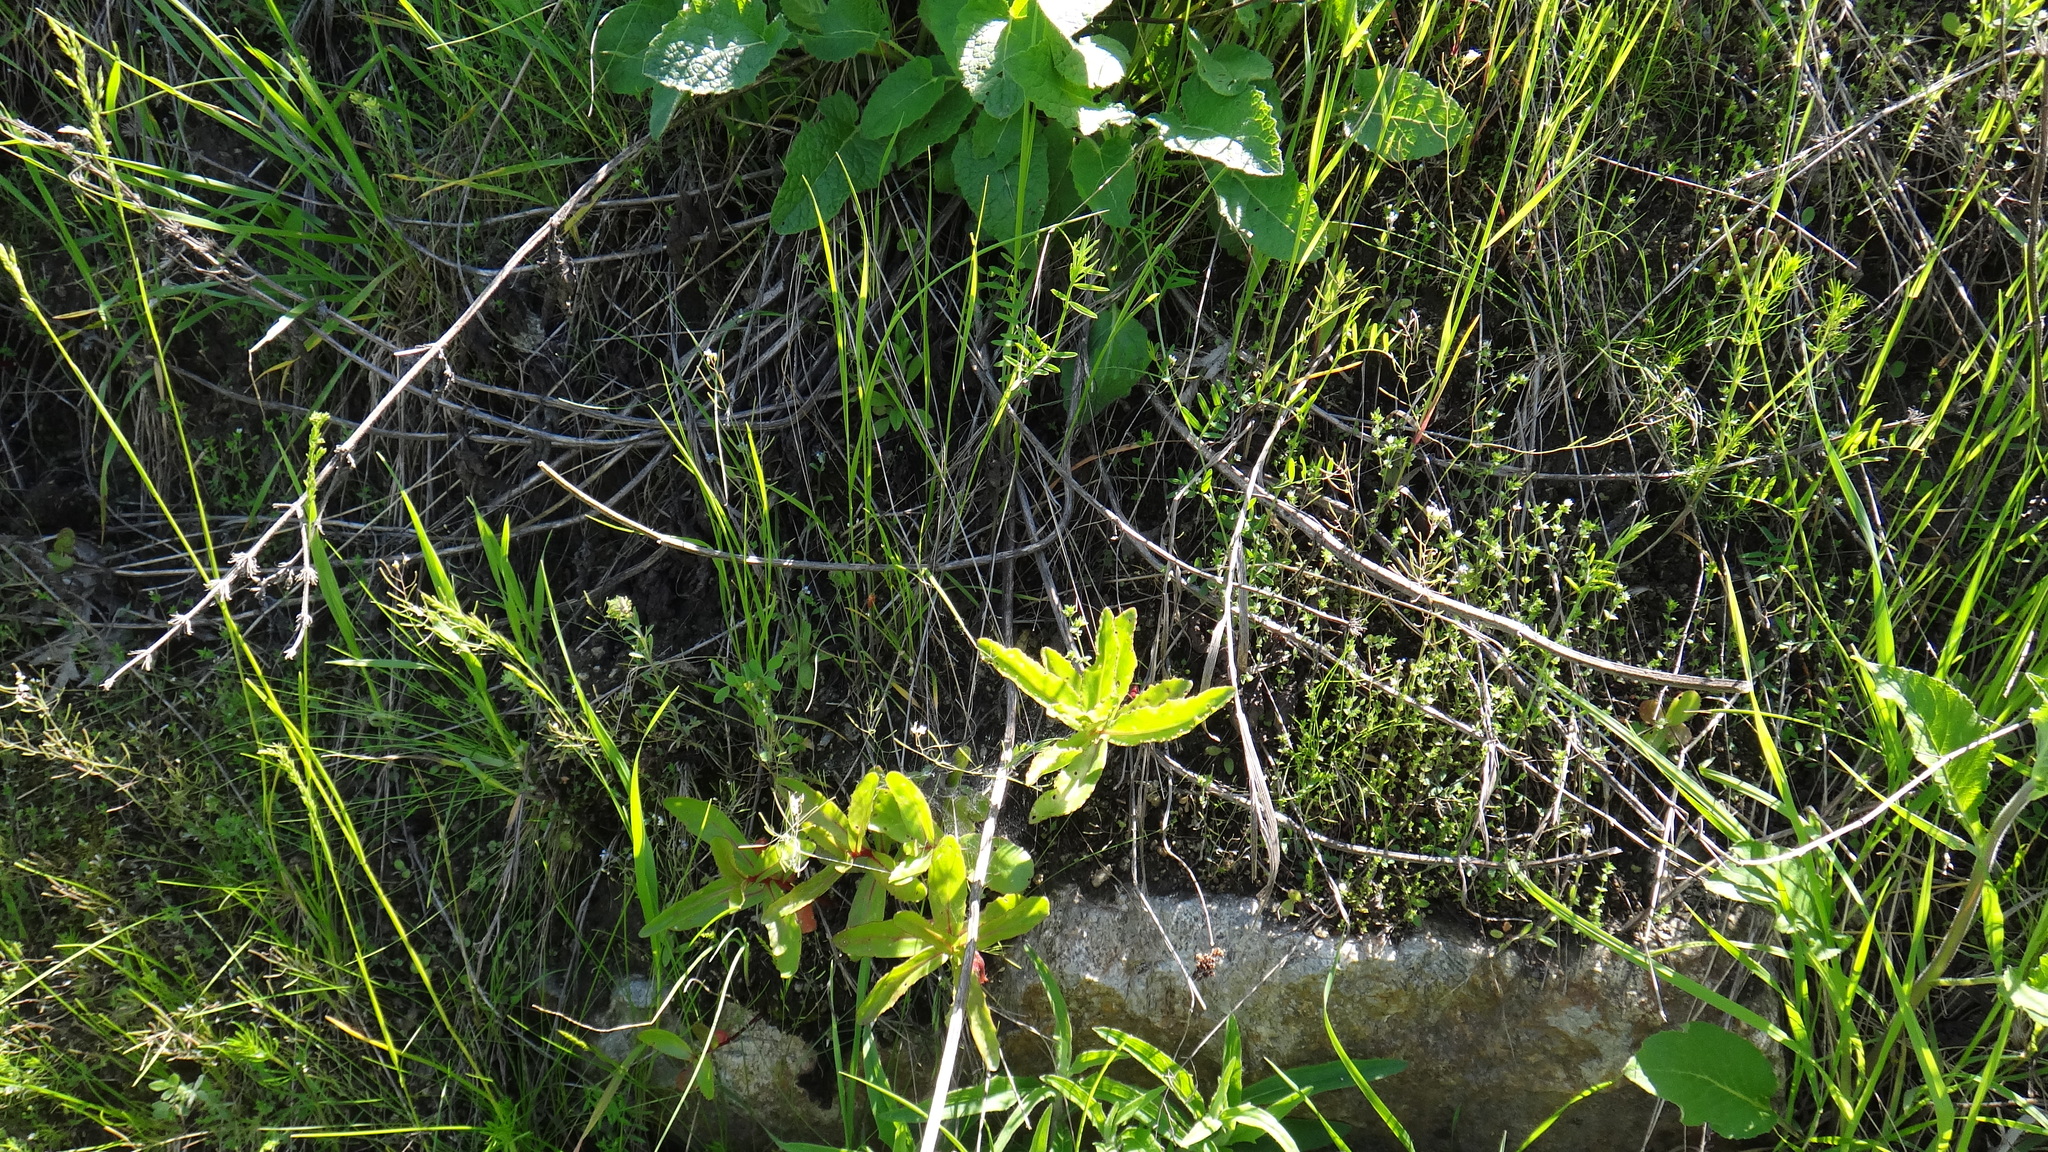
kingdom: Plantae
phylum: Tracheophyta
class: Magnoliopsida
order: Saxifragales
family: Crassulaceae
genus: Hylotelephium
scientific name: Hylotelephium maximum
